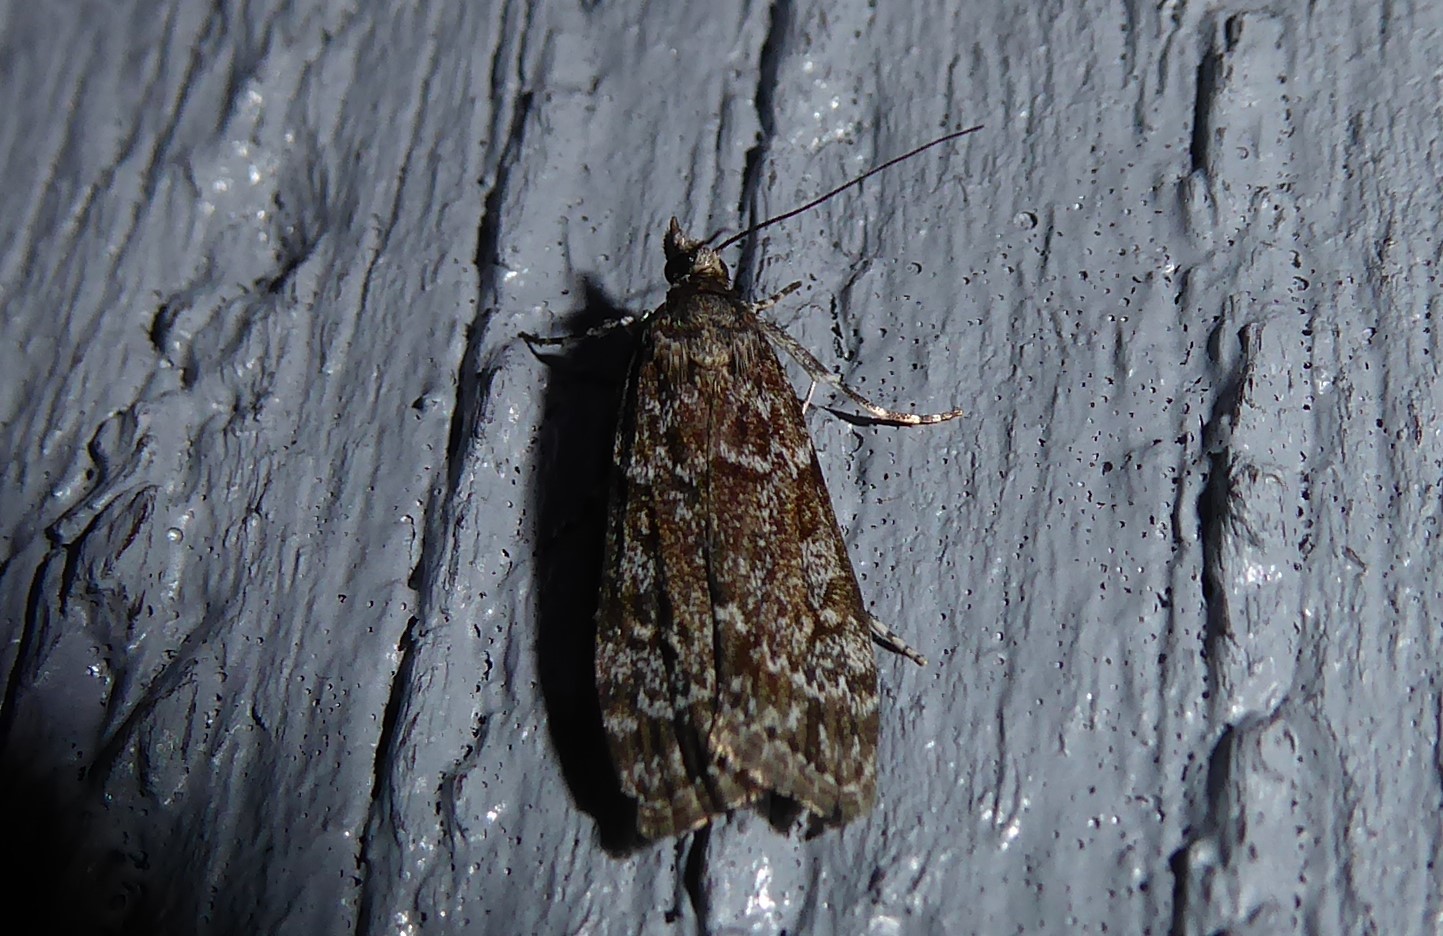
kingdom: Animalia
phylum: Arthropoda
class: Insecta
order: Lepidoptera
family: Crambidae
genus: Eudonia
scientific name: Eudonia philerga
